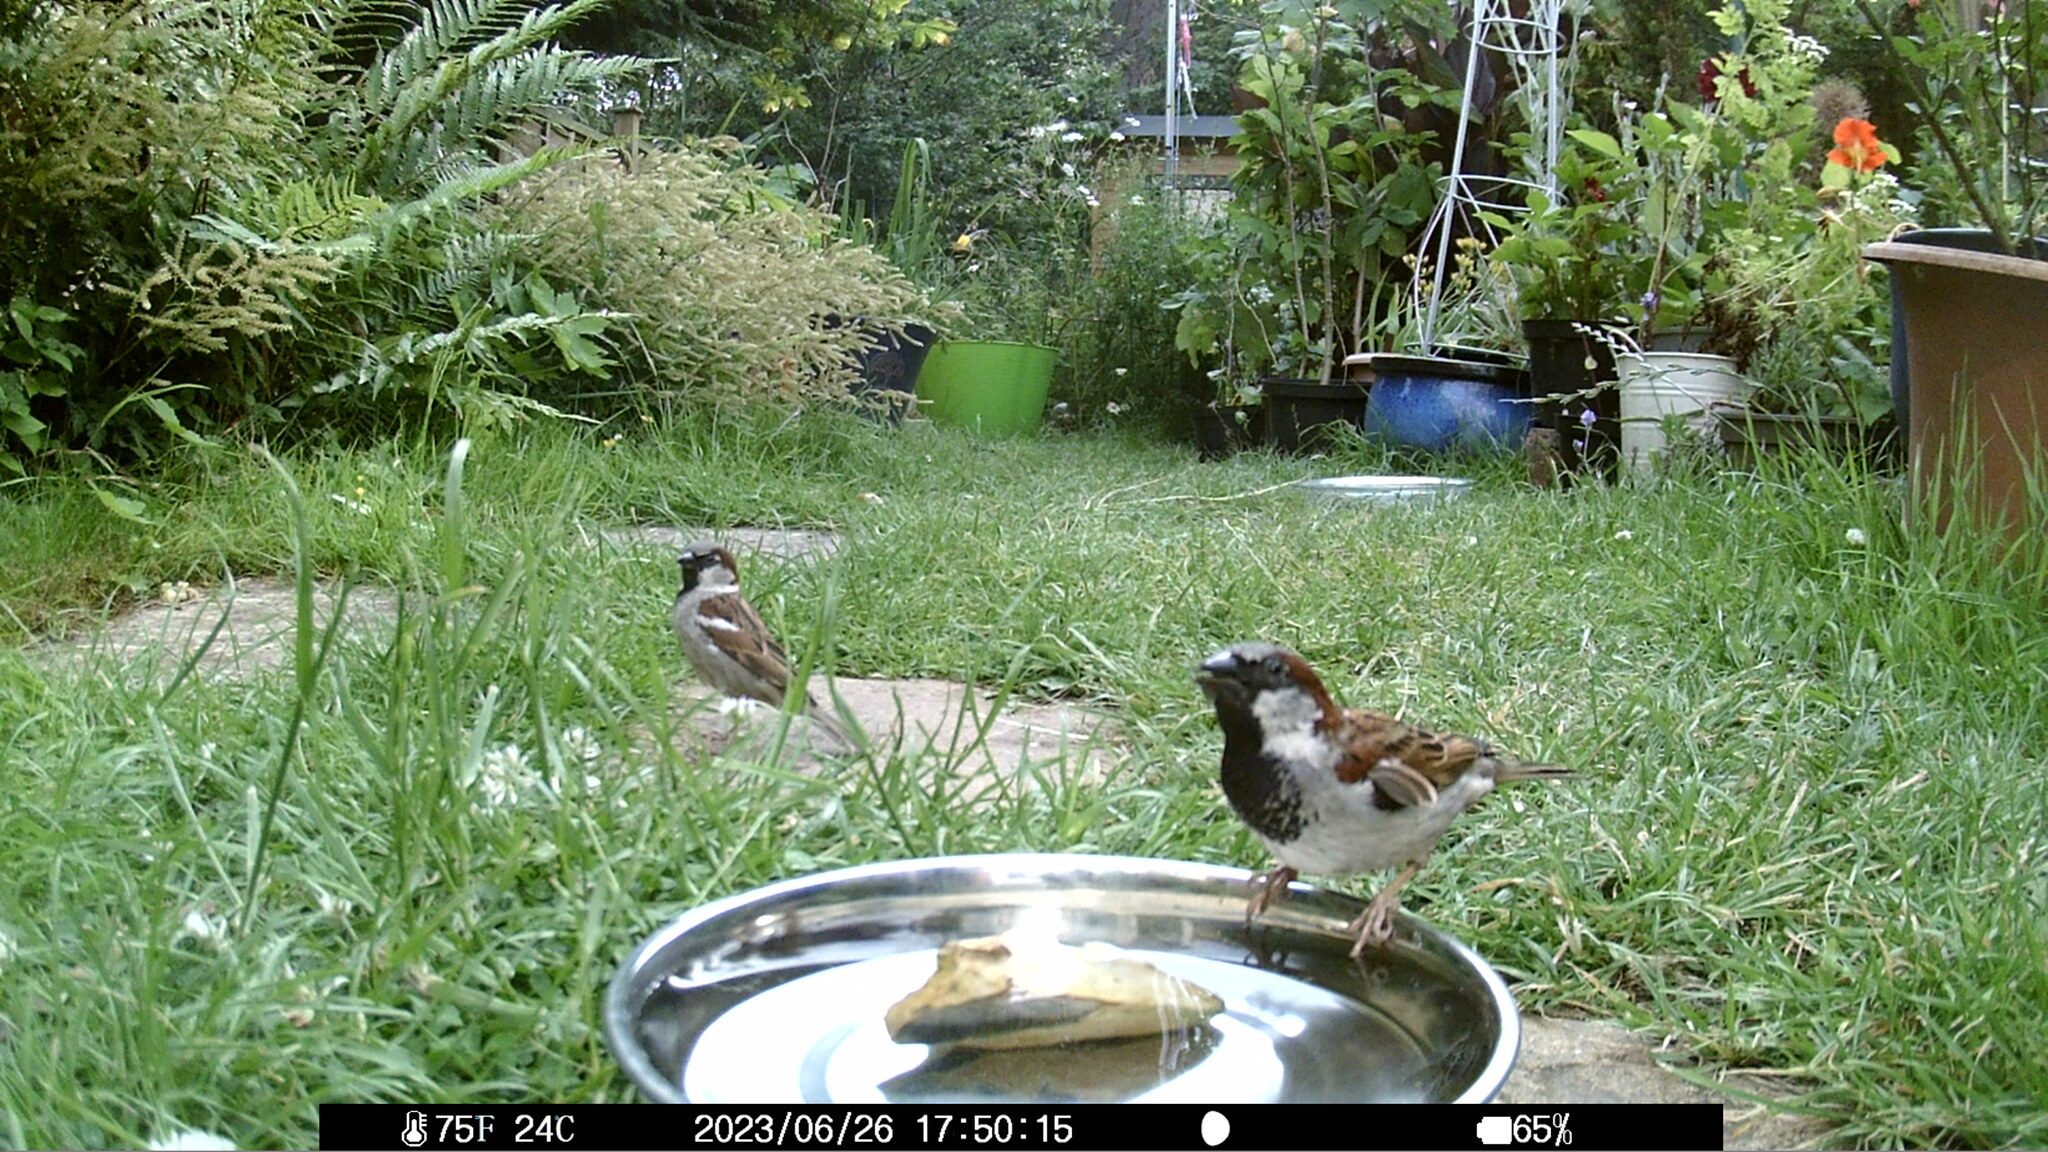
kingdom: Animalia
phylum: Chordata
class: Aves
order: Passeriformes
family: Passeridae
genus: Passer
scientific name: Passer domesticus
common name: House sparrow
